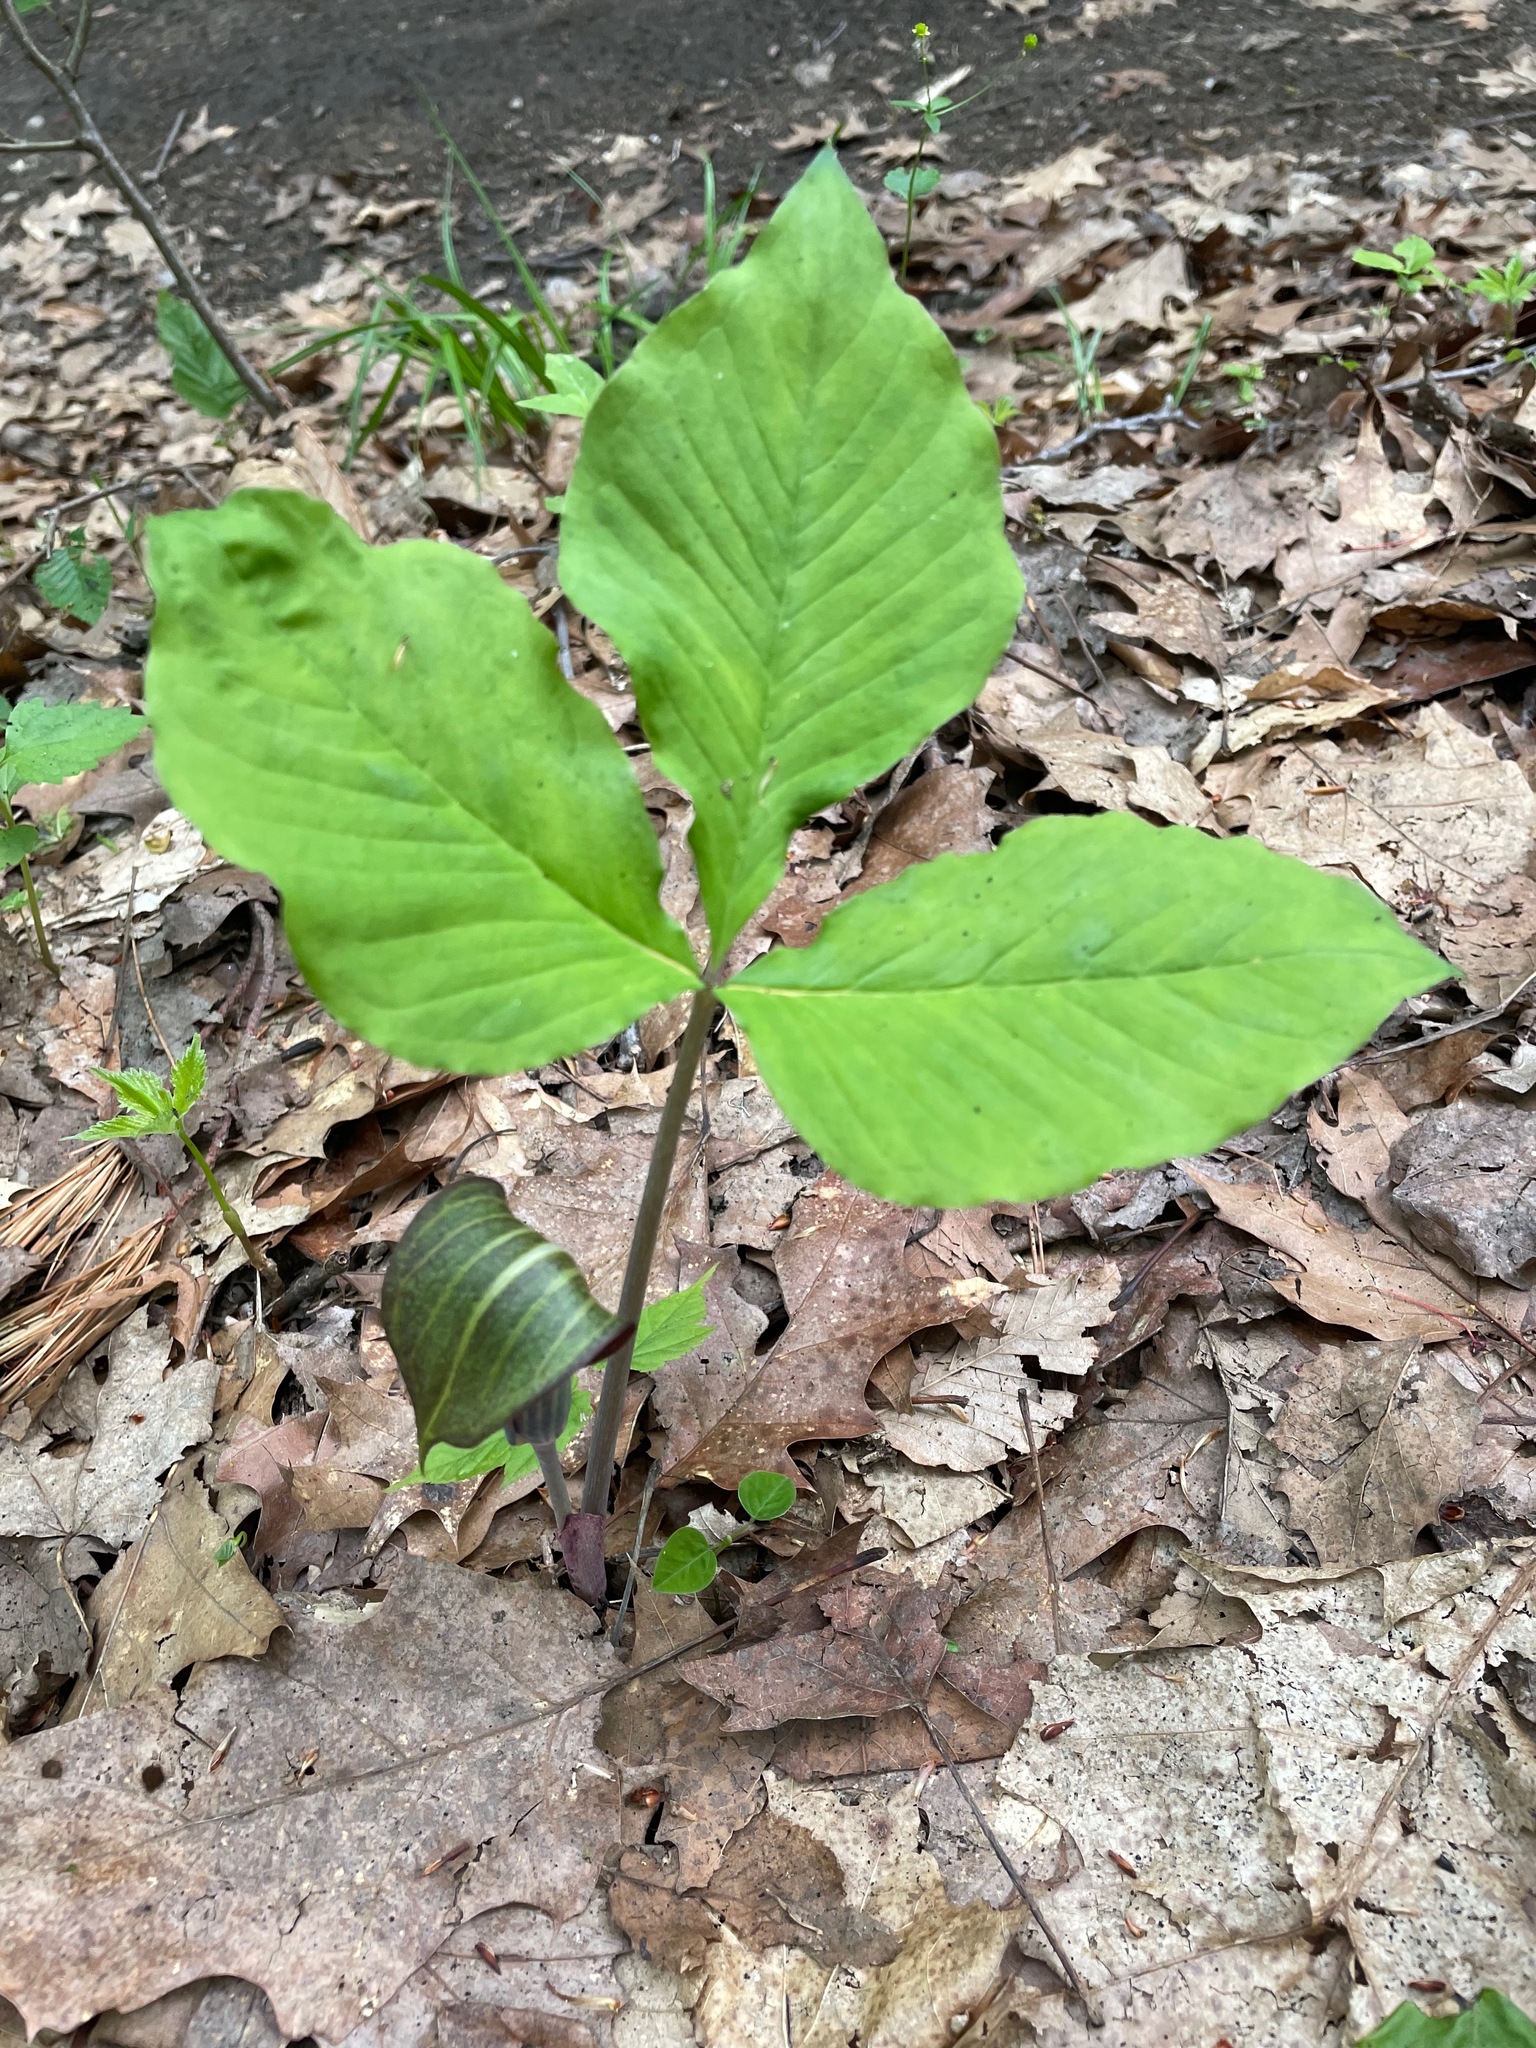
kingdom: Plantae
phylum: Tracheophyta
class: Liliopsida
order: Alismatales
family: Araceae
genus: Arisaema
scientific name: Arisaema triphyllum
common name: Jack-in-the-pulpit
